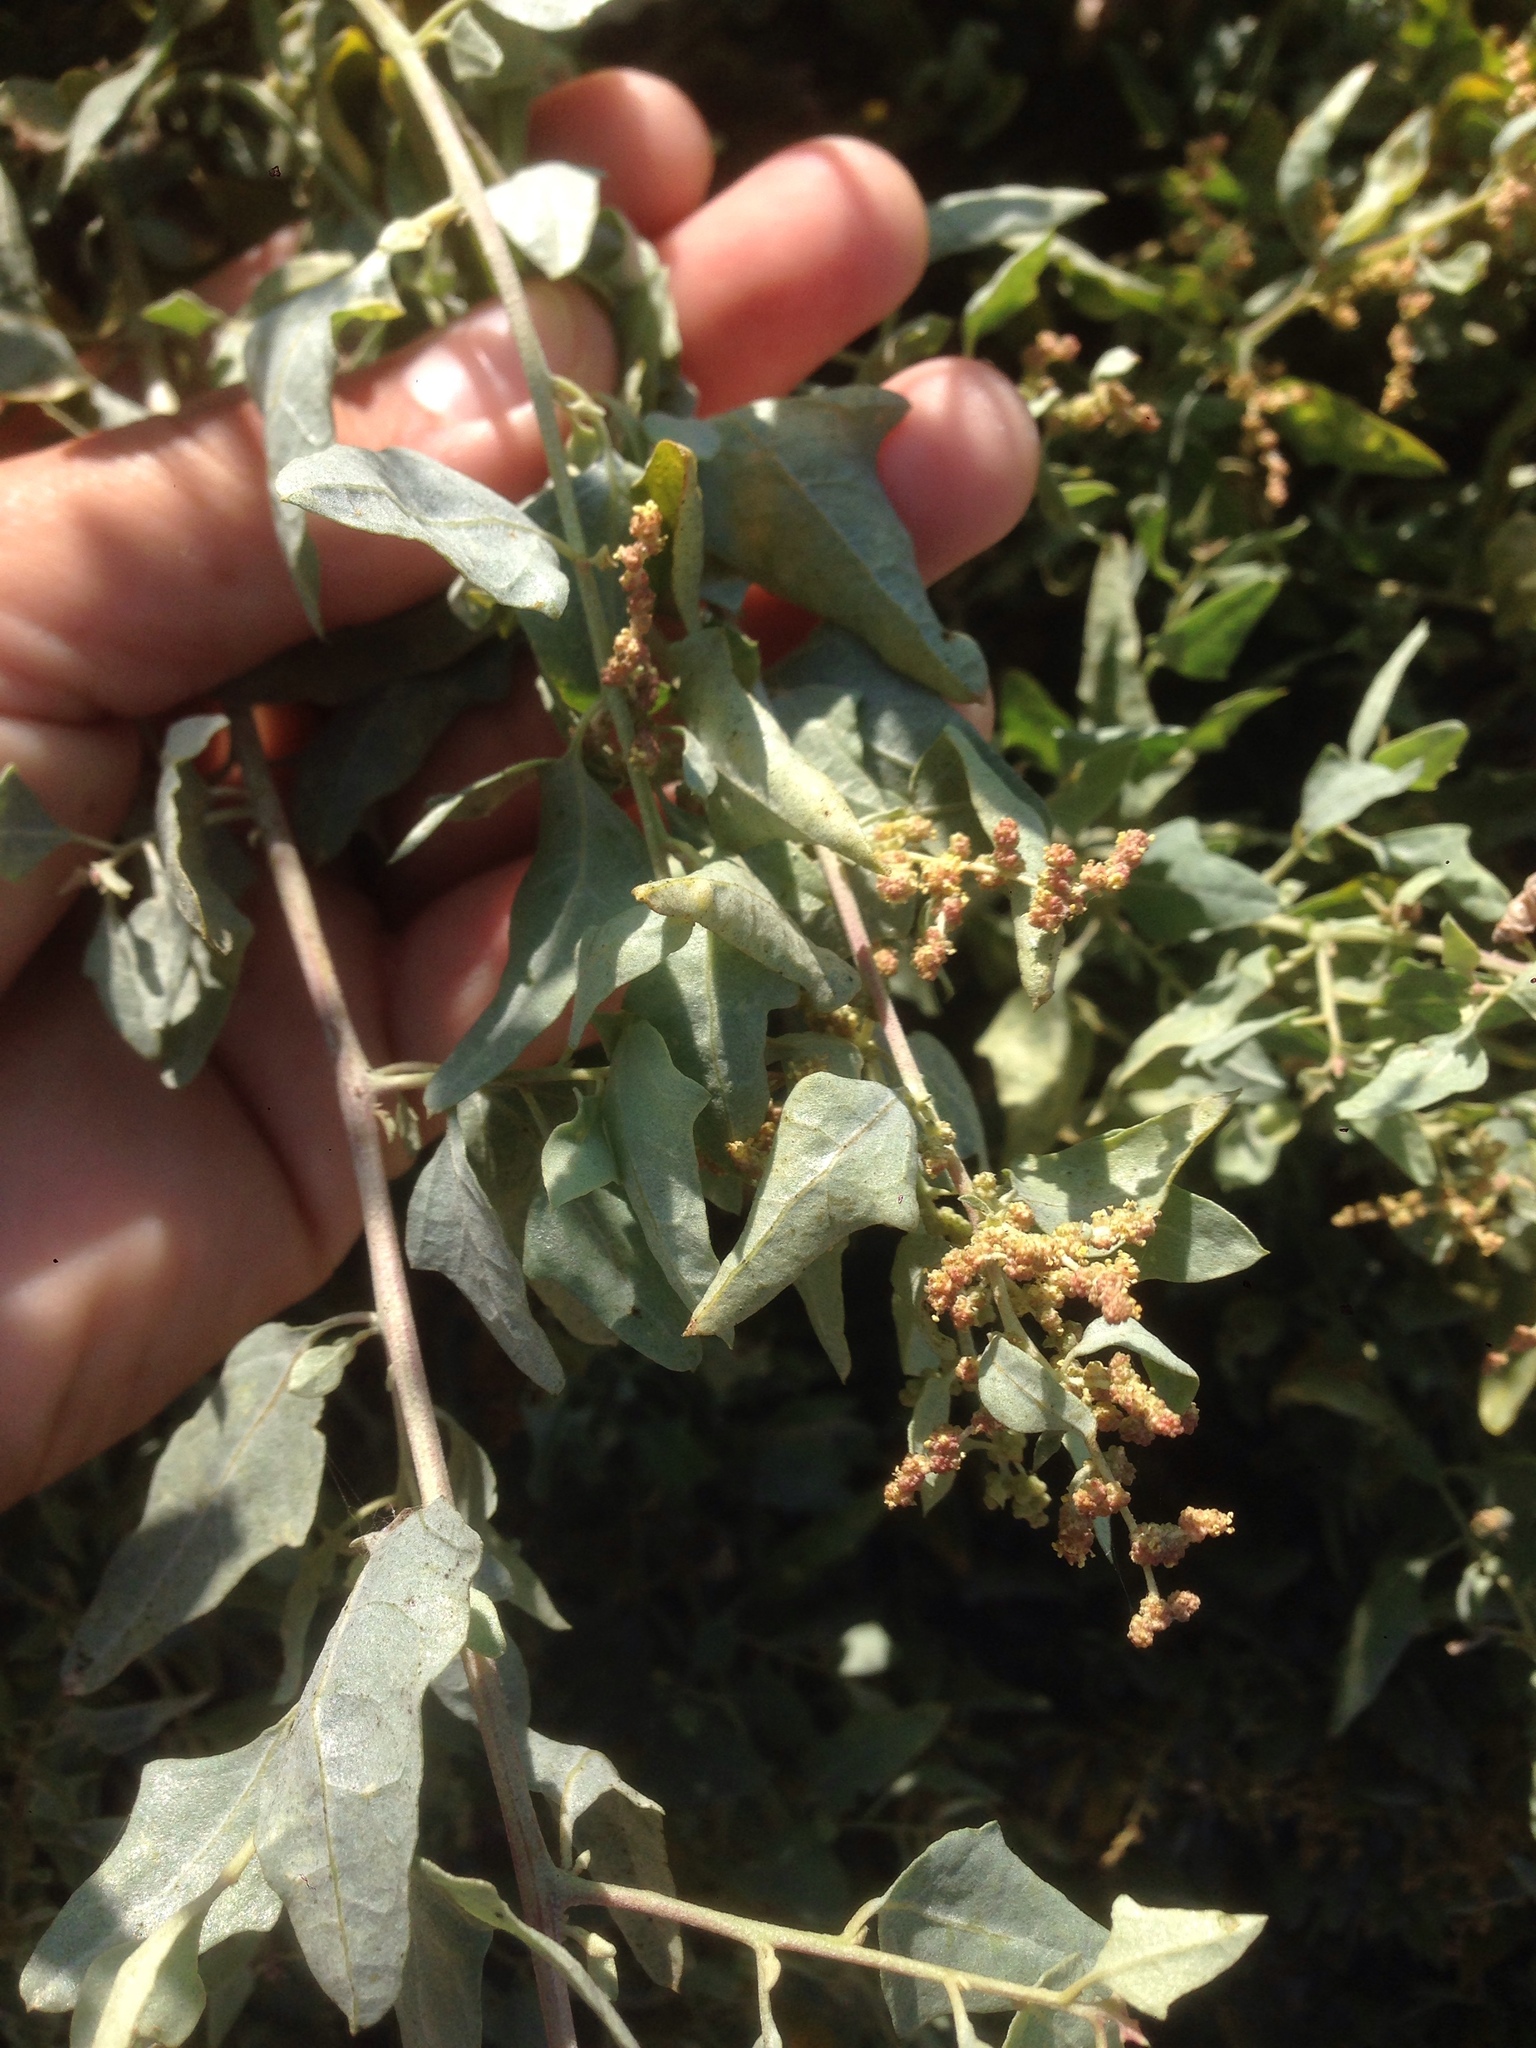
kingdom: Plantae
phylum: Tracheophyta
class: Magnoliopsida
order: Caryophyllales
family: Amaranthaceae
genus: Atriplex
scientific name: Atriplex lentiformis
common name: Big saltbush
